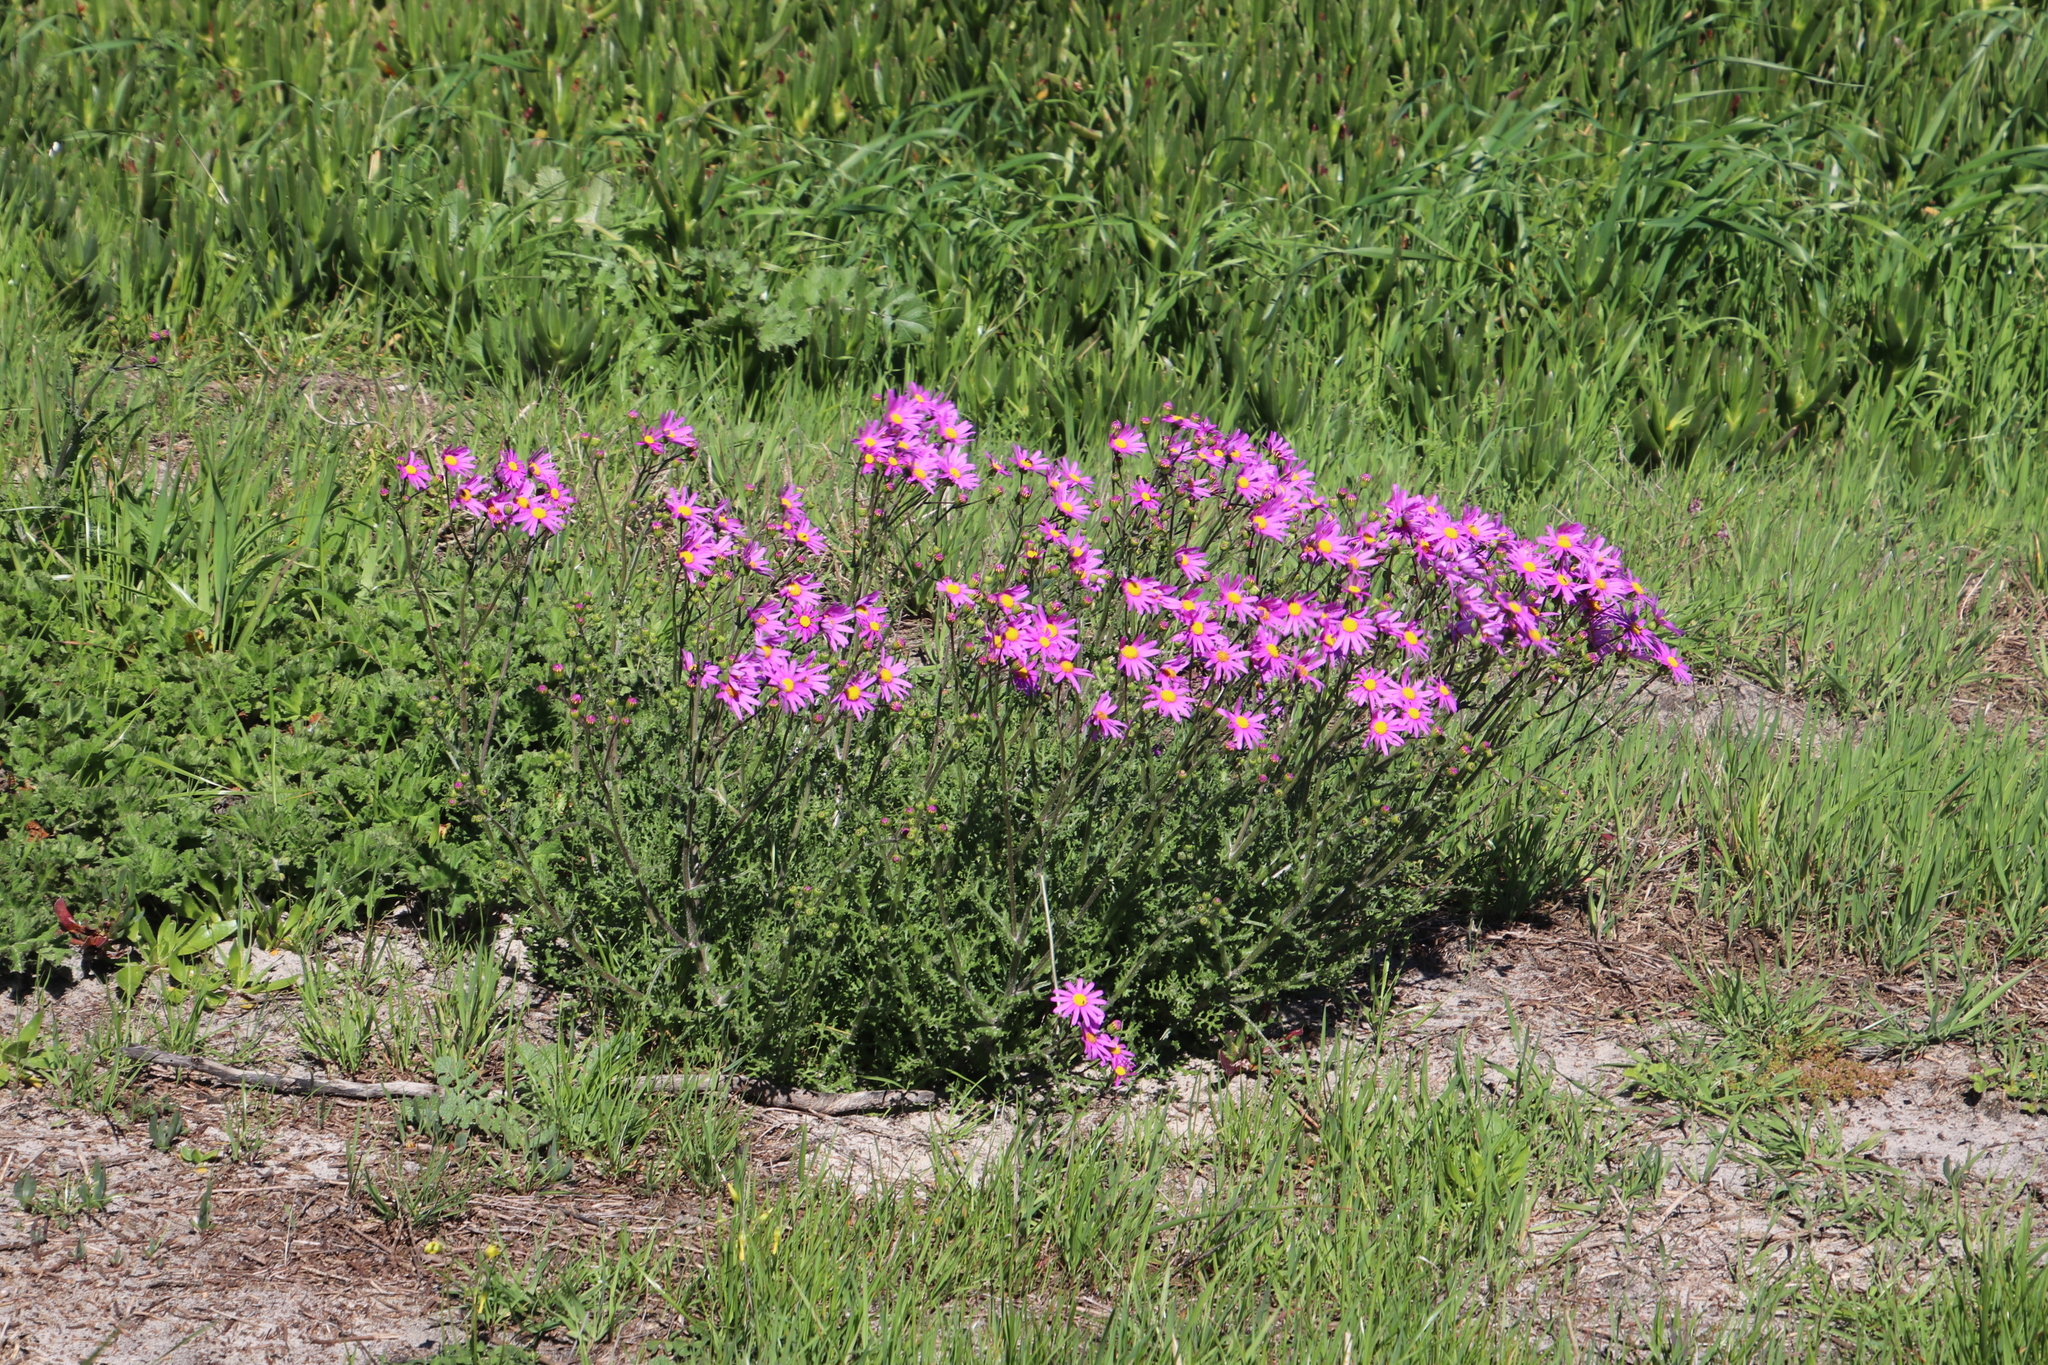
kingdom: Plantae
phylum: Tracheophyta
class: Magnoliopsida
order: Asterales
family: Asteraceae
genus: Senecio
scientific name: Senecio arenarius
